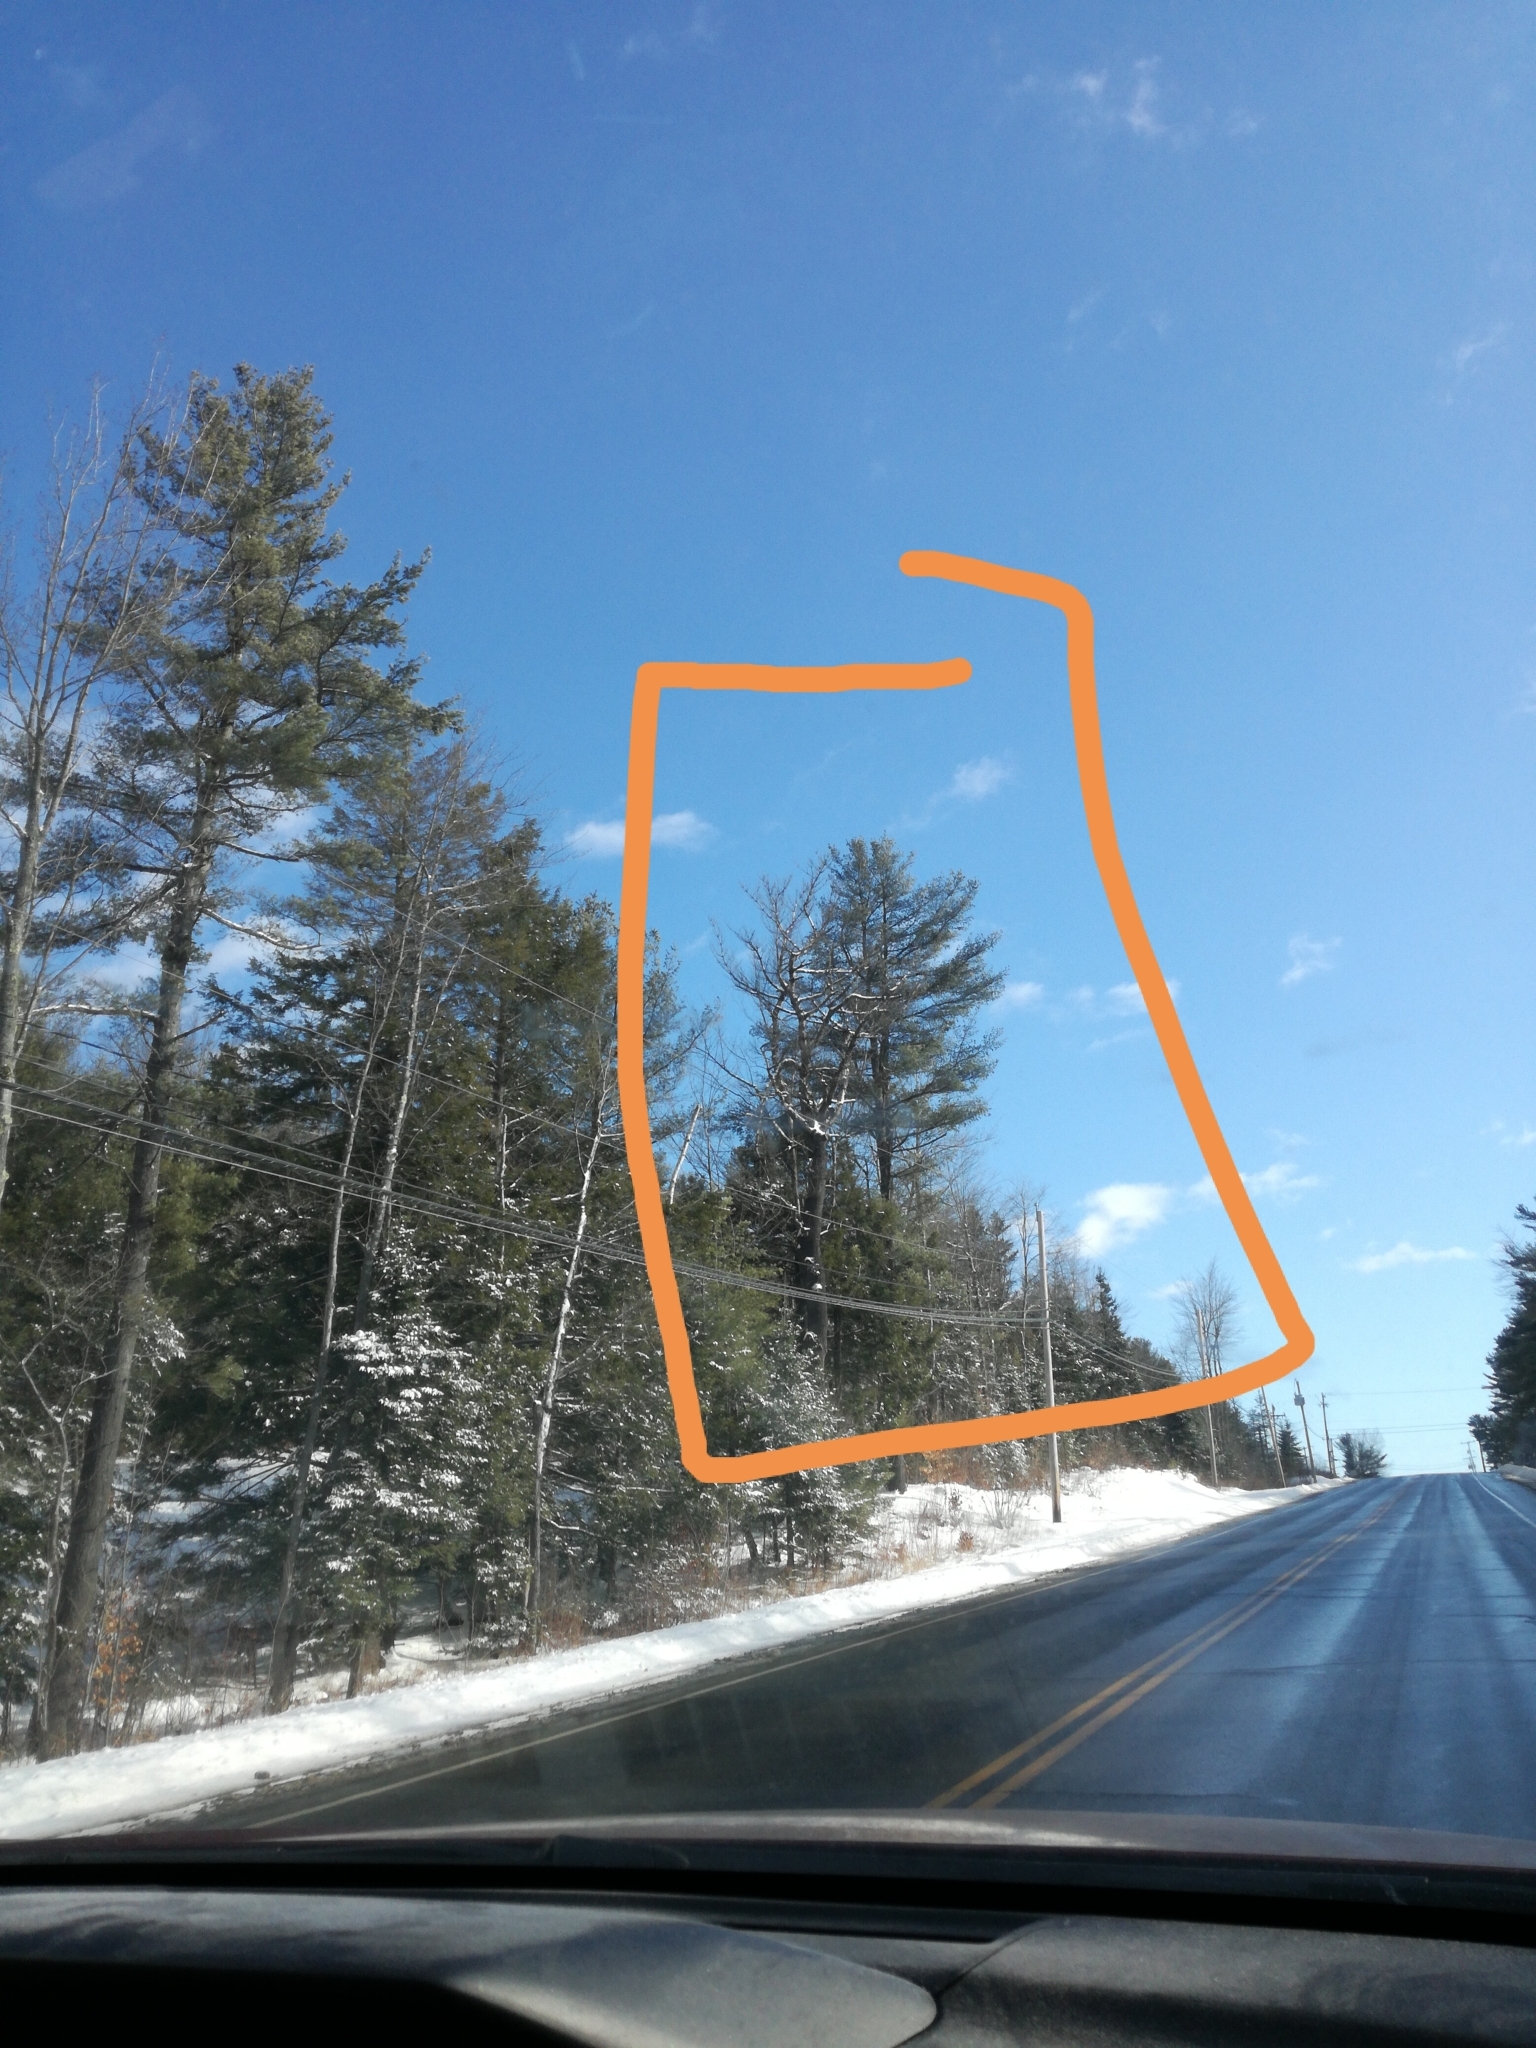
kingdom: Plantae
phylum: Tracheophyta
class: Pinopsida
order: Pinales
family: Pinaceae
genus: Pinus
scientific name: Pinus strobus
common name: Weymouth pine
